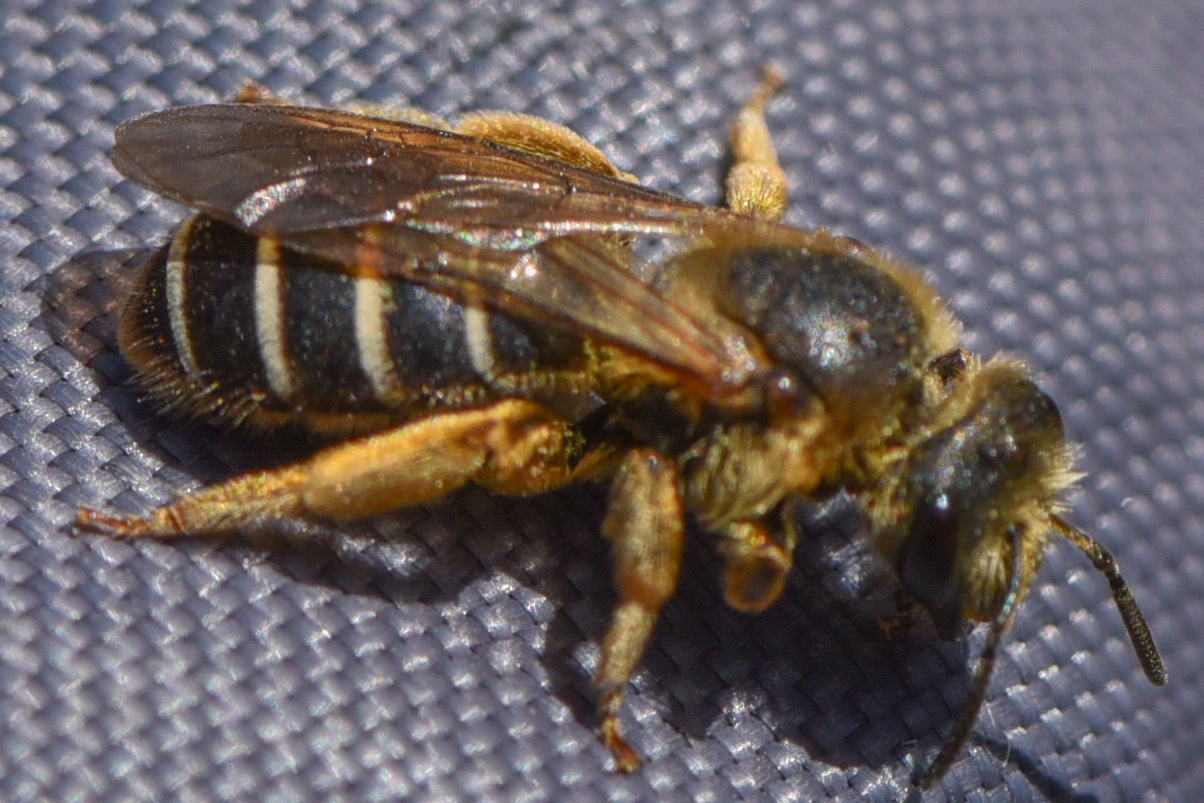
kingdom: Animalia
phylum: Arthropoda
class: Insecta
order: Hymenoptera
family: Halictidae
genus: Halictus
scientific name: Halictus rubicundus
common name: Orange-legged furrow bee
